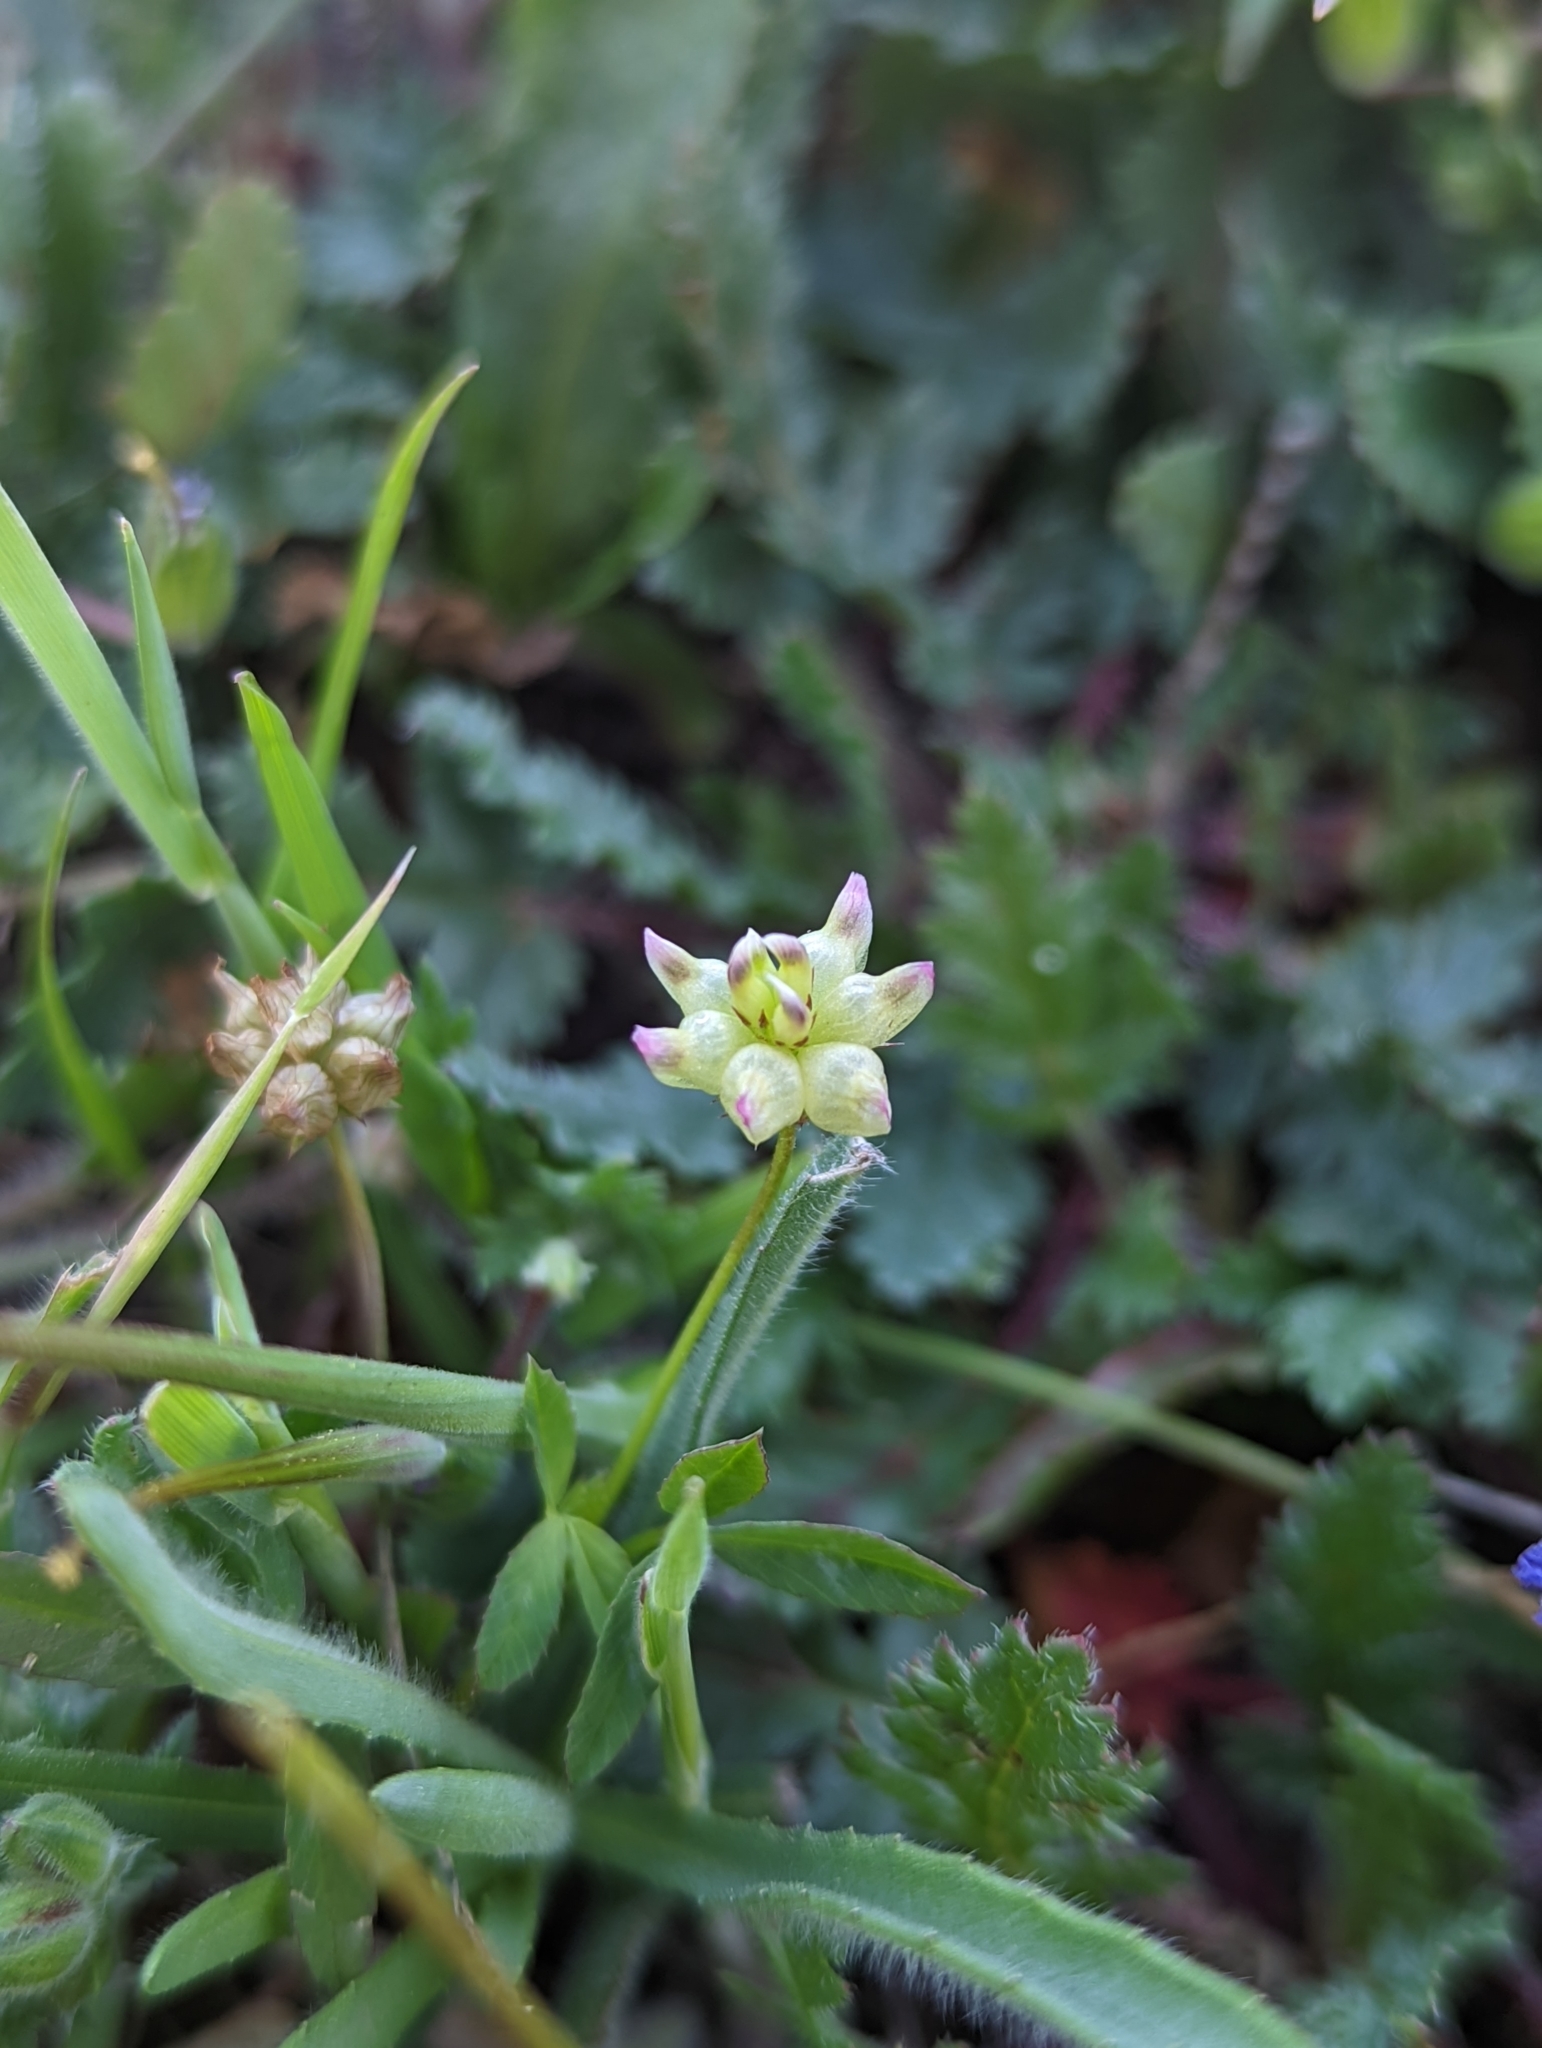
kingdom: Plantae
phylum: Tracheophyta
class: Magnoliopsida
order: Fabales
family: Fabaceae
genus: Trifolium
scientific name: Trifolium depauperatum
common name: Poverty clover
